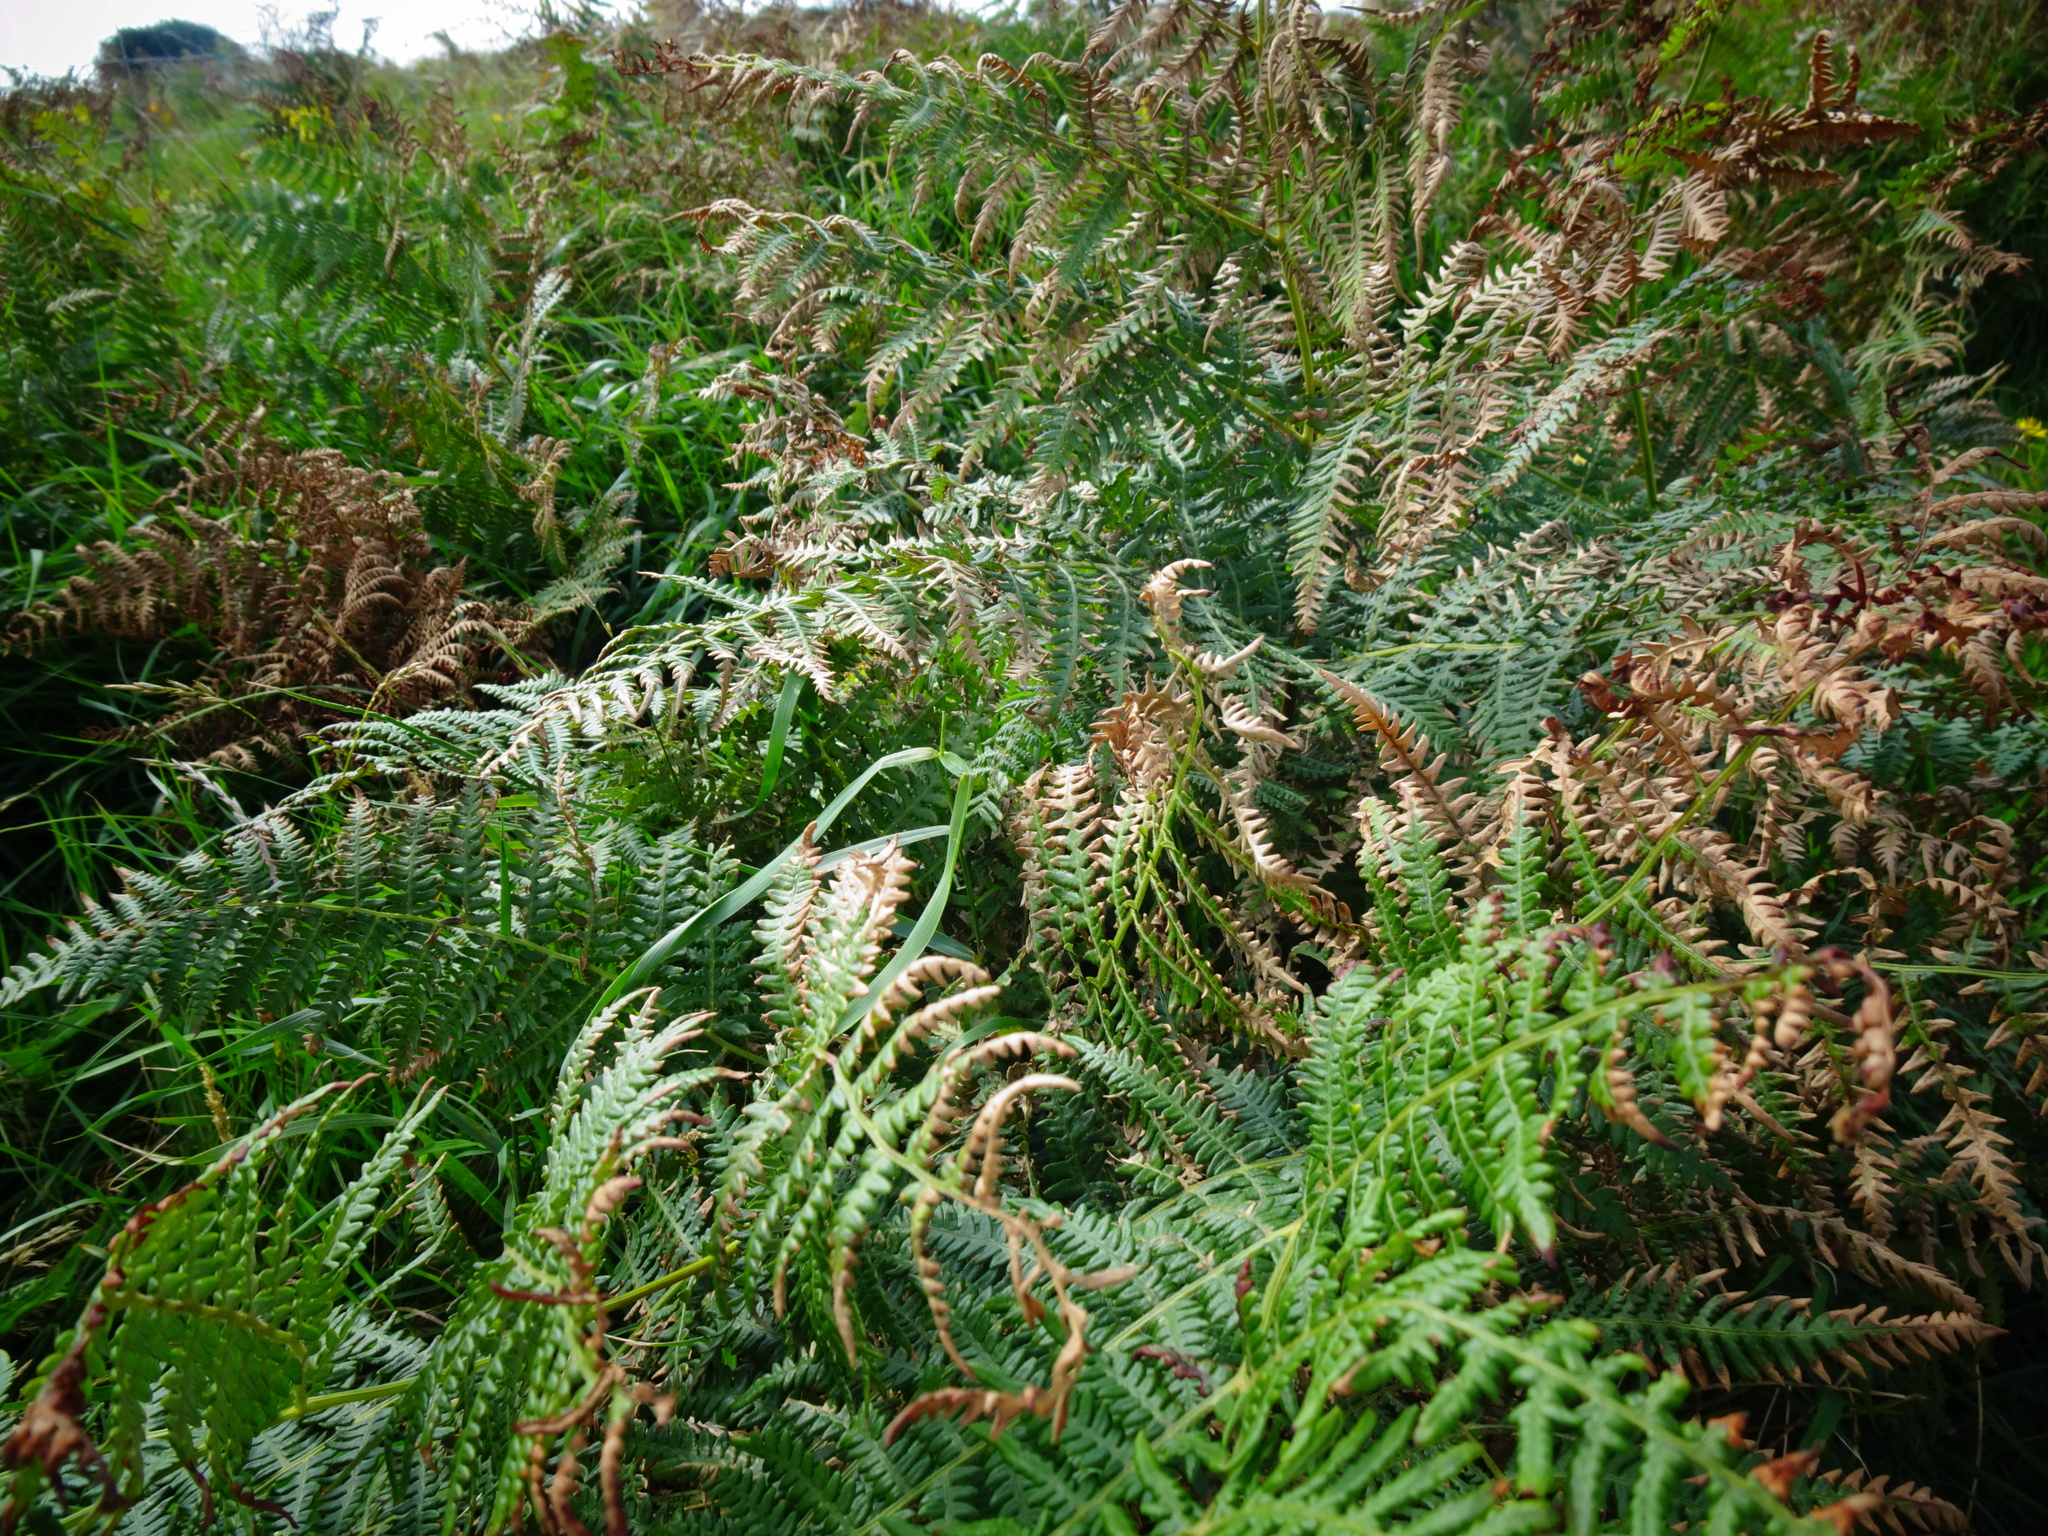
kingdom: Plantae
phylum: Tracheophyta
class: Polypodiopsida
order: Polypodiales
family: Dennstaedtiaceae
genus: Pteridium
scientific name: Pteridium aquilinum
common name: Bracken
